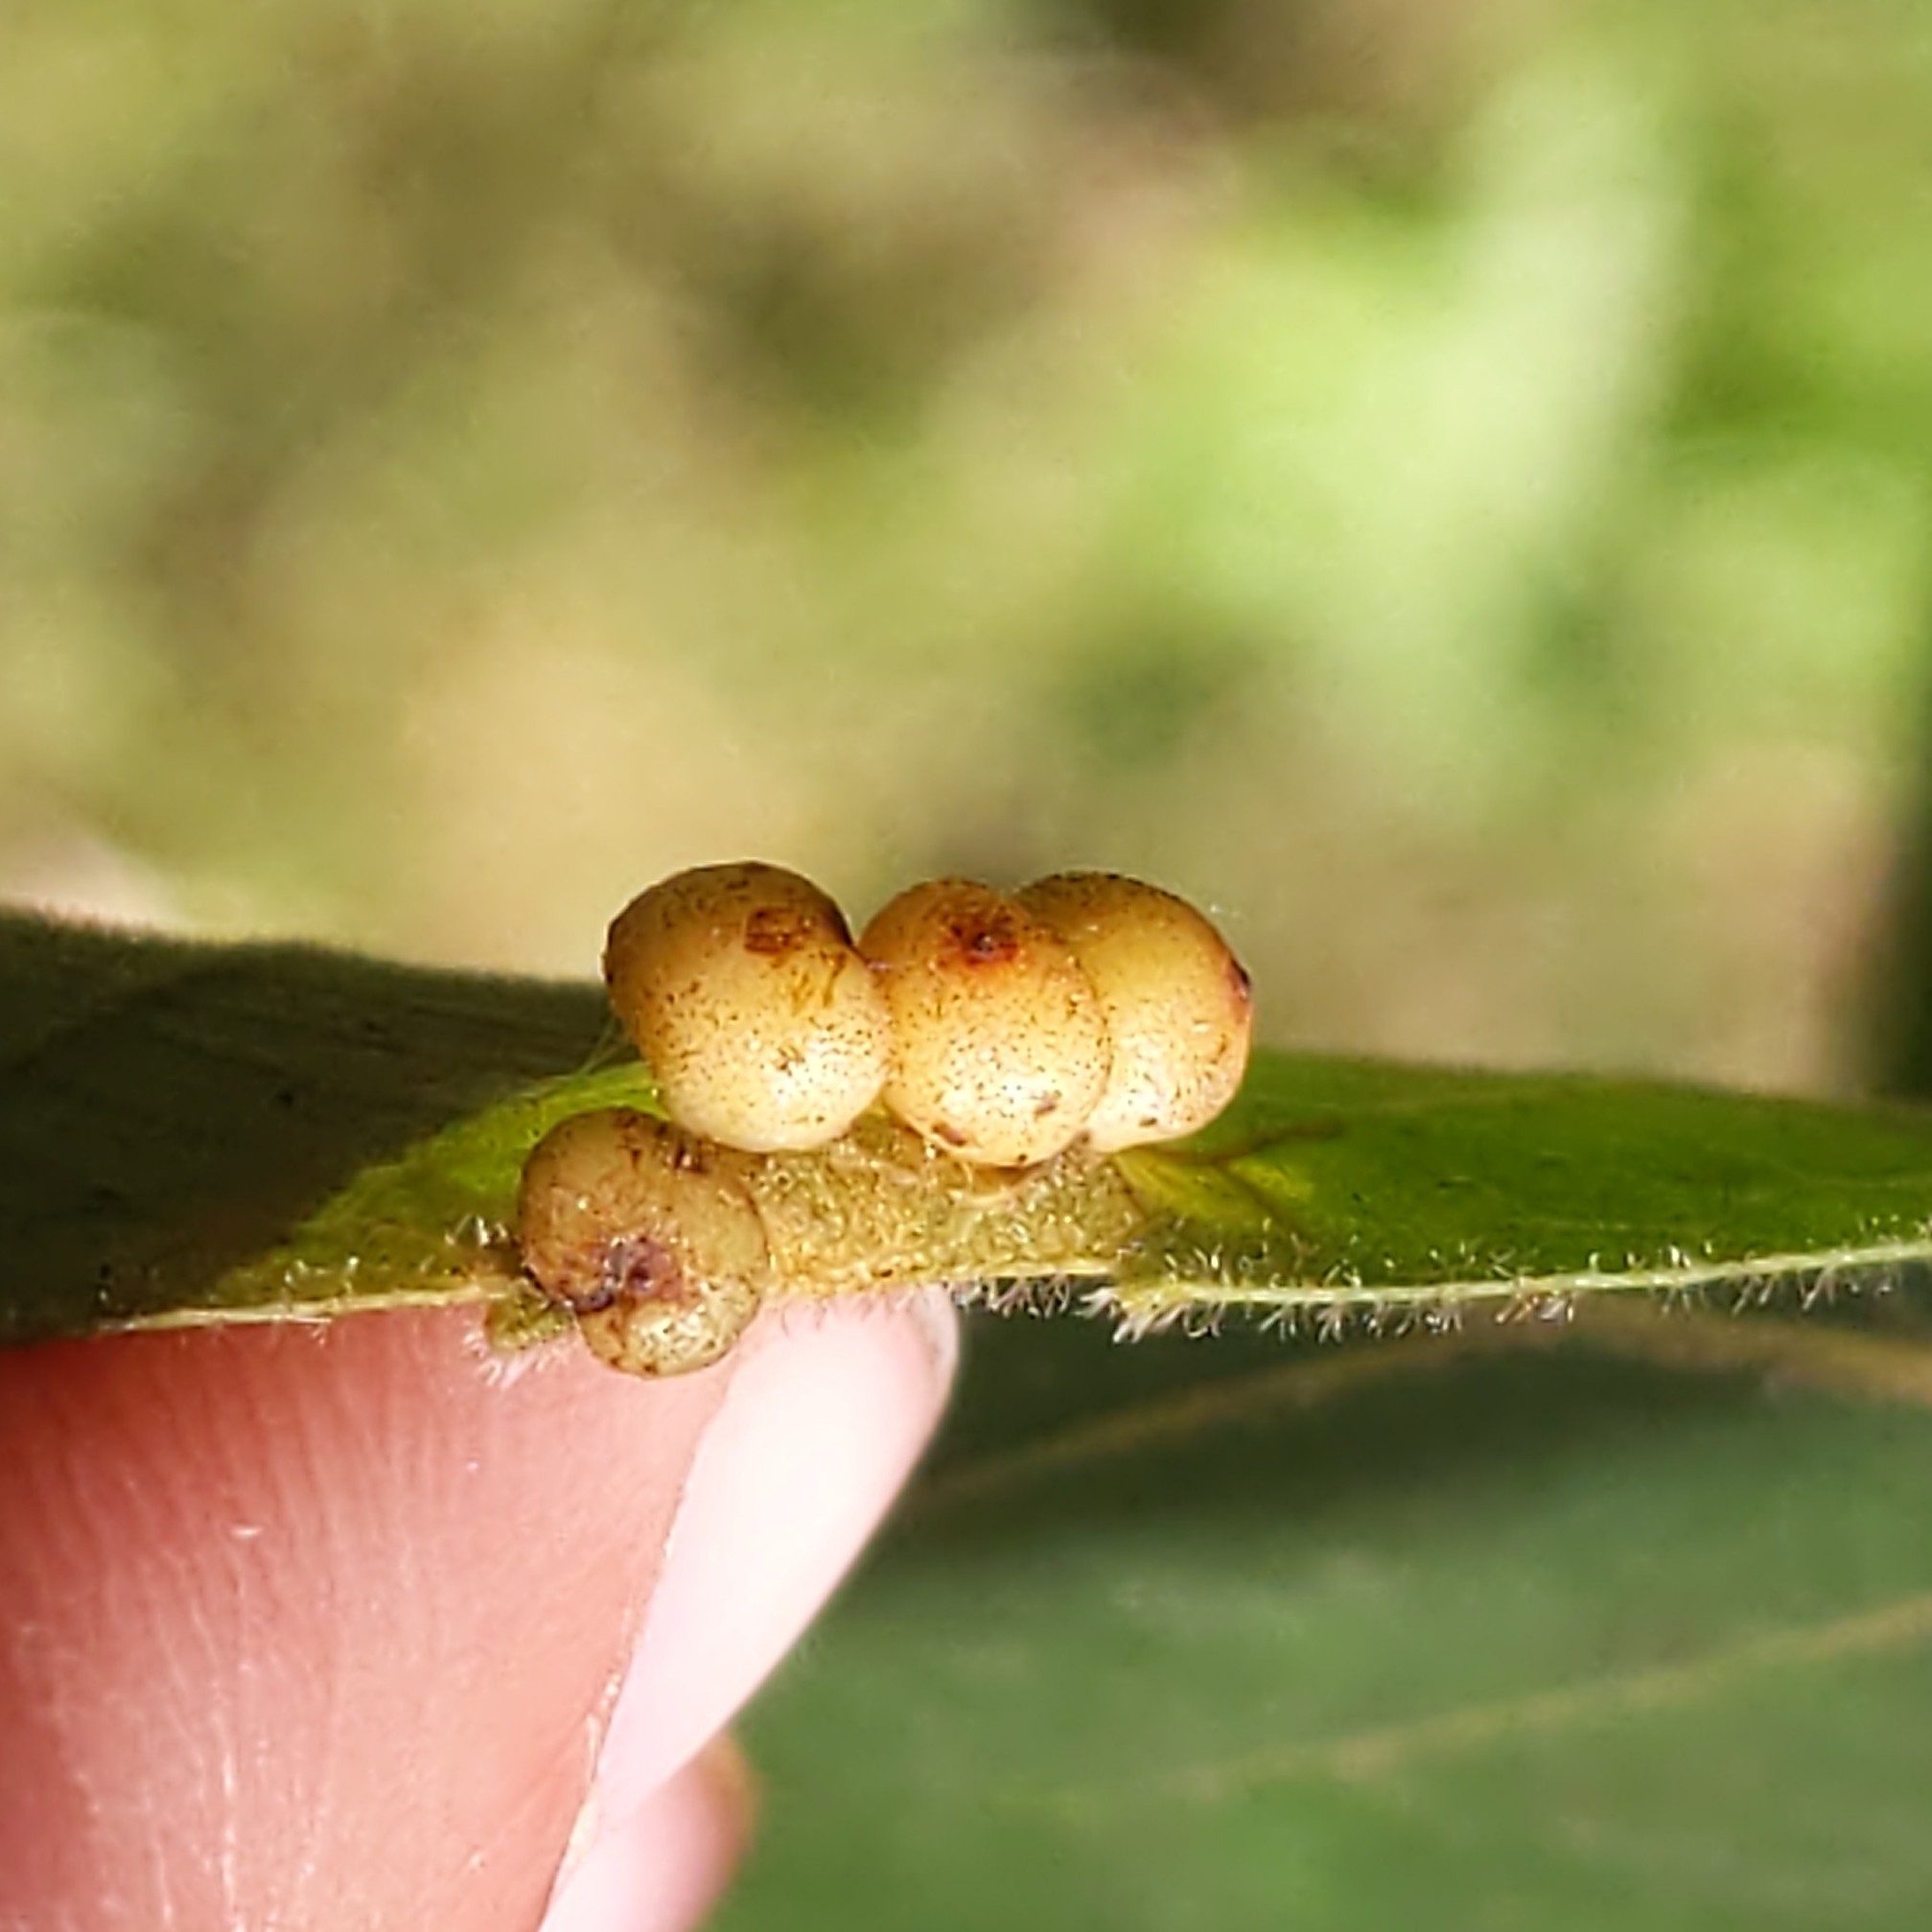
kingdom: Animalia
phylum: Arthropoda
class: Insecta
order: Diptera
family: Cecidomyiidae
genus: Caryomyia
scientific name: Caryomyia caryae
